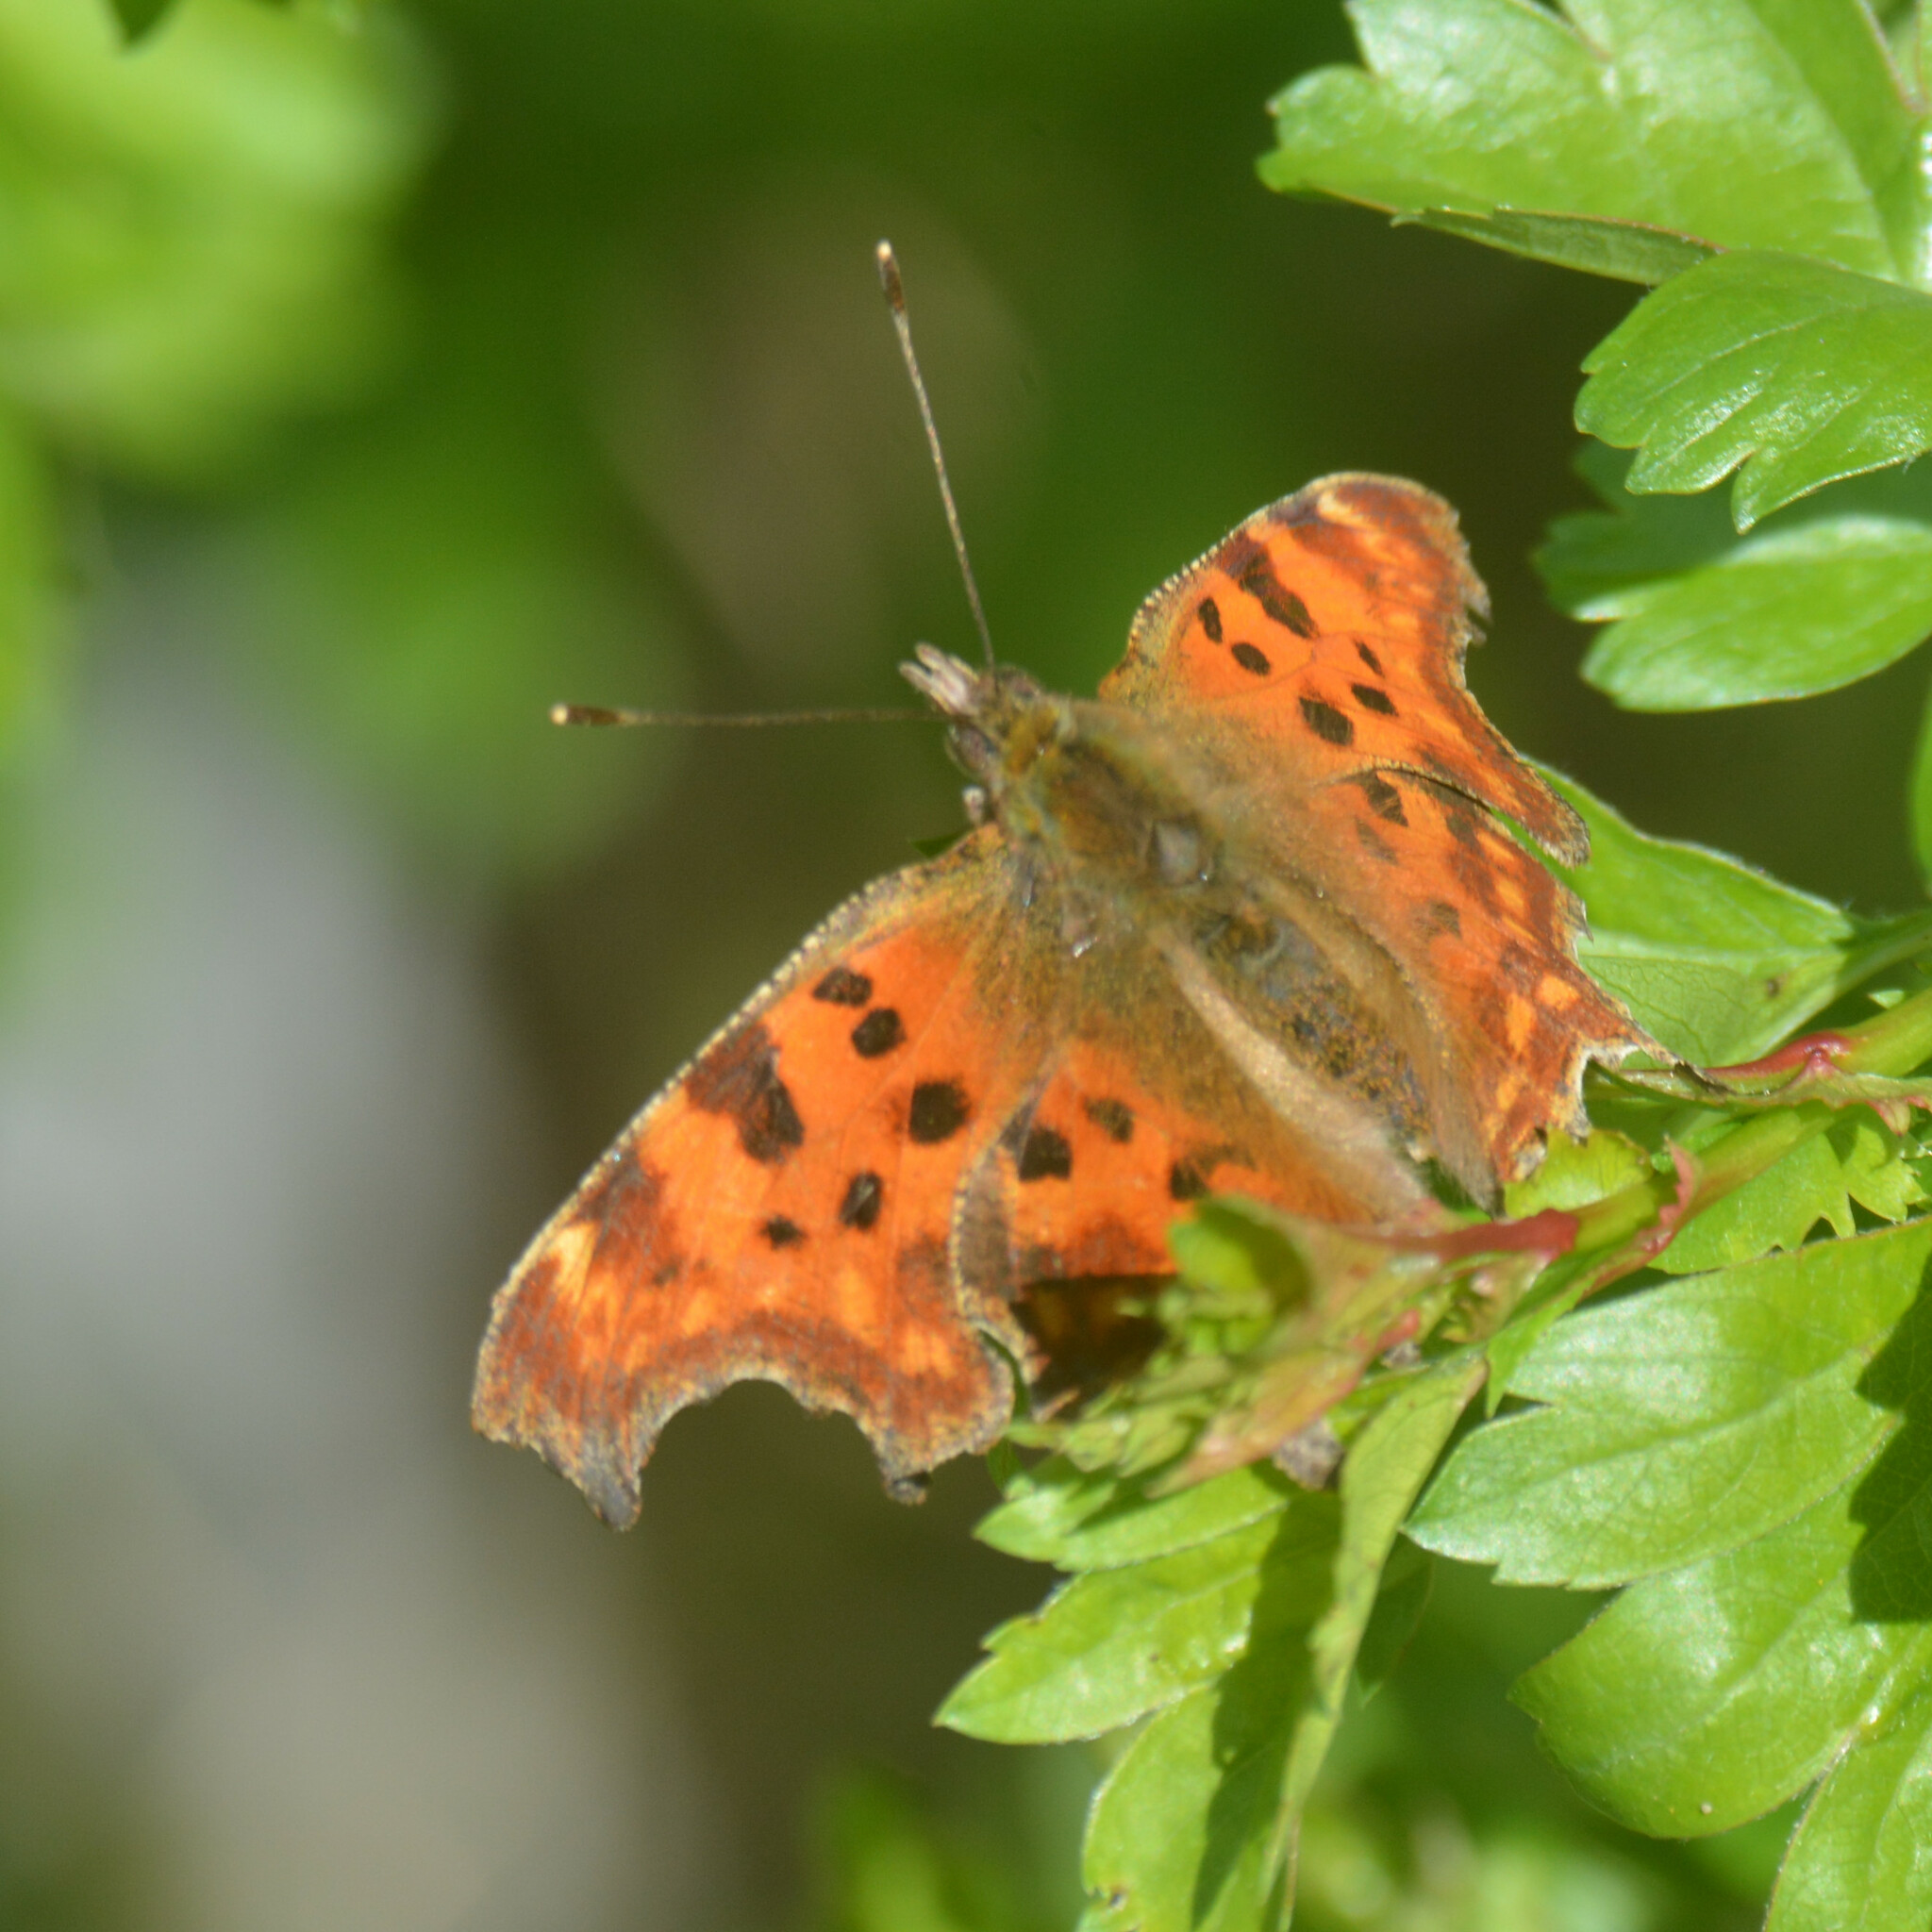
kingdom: Animalia
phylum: Arthropoda
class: Insecta
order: Lepidoptera
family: Nymphalidae
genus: Polygonia
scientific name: Polygonia c-album
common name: Comma
